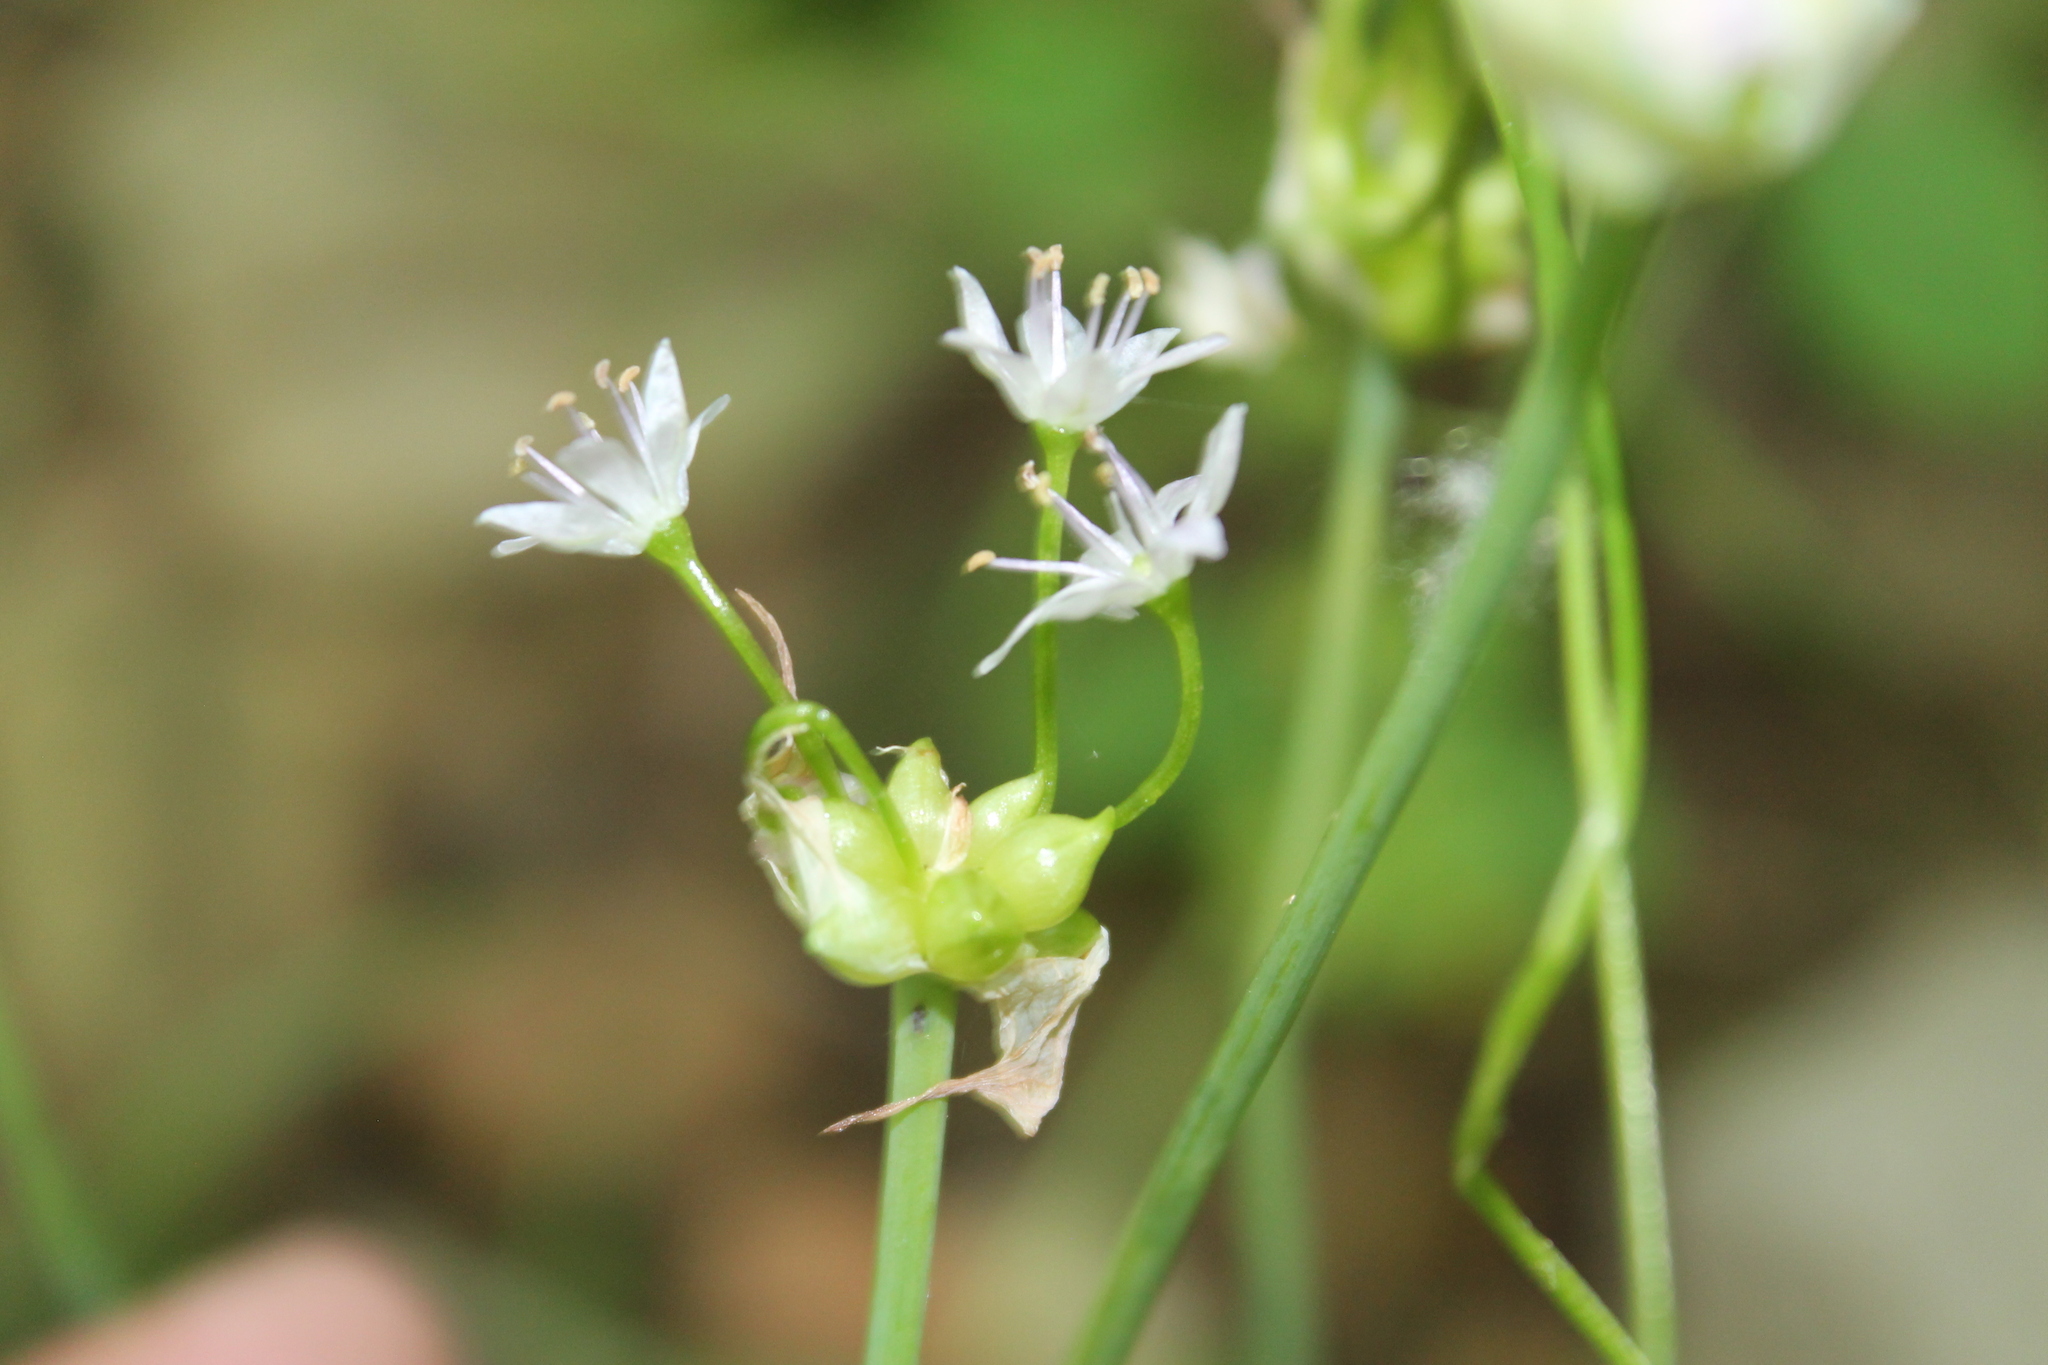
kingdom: Plantae
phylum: Tracheophyta
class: Liliopsida
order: Asparagales
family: Amaryllidaceae
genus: Allium
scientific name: Allium canadense
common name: Meadow garlic
